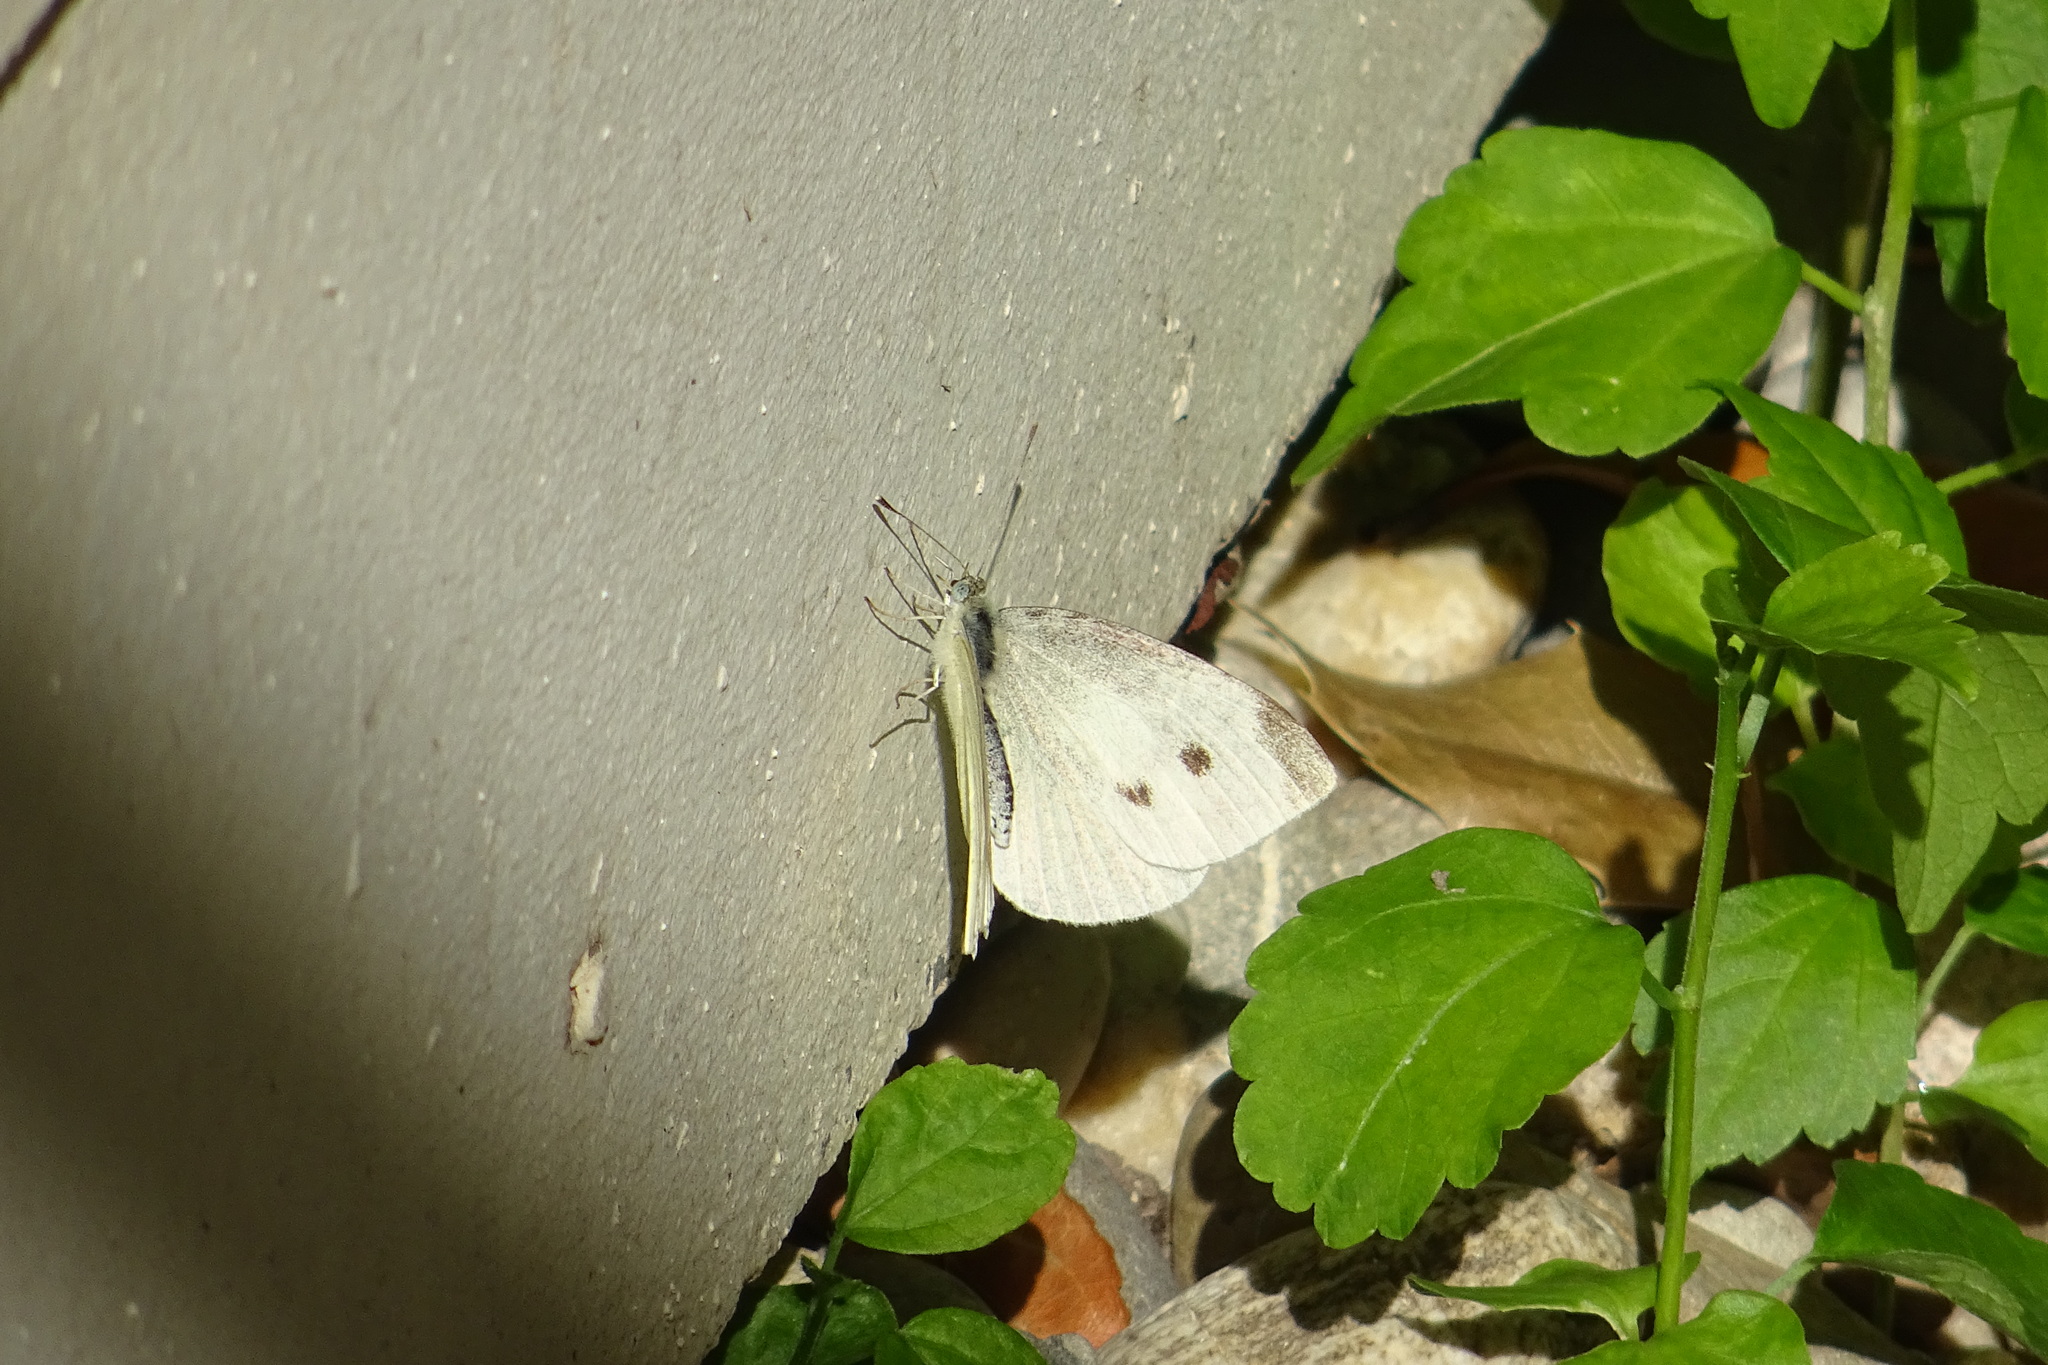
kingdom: Animalia
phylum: Arthropoda
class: Insecta
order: Lepidoptera
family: Pieridae
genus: Pieris
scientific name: Pieris rapae
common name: Small white
